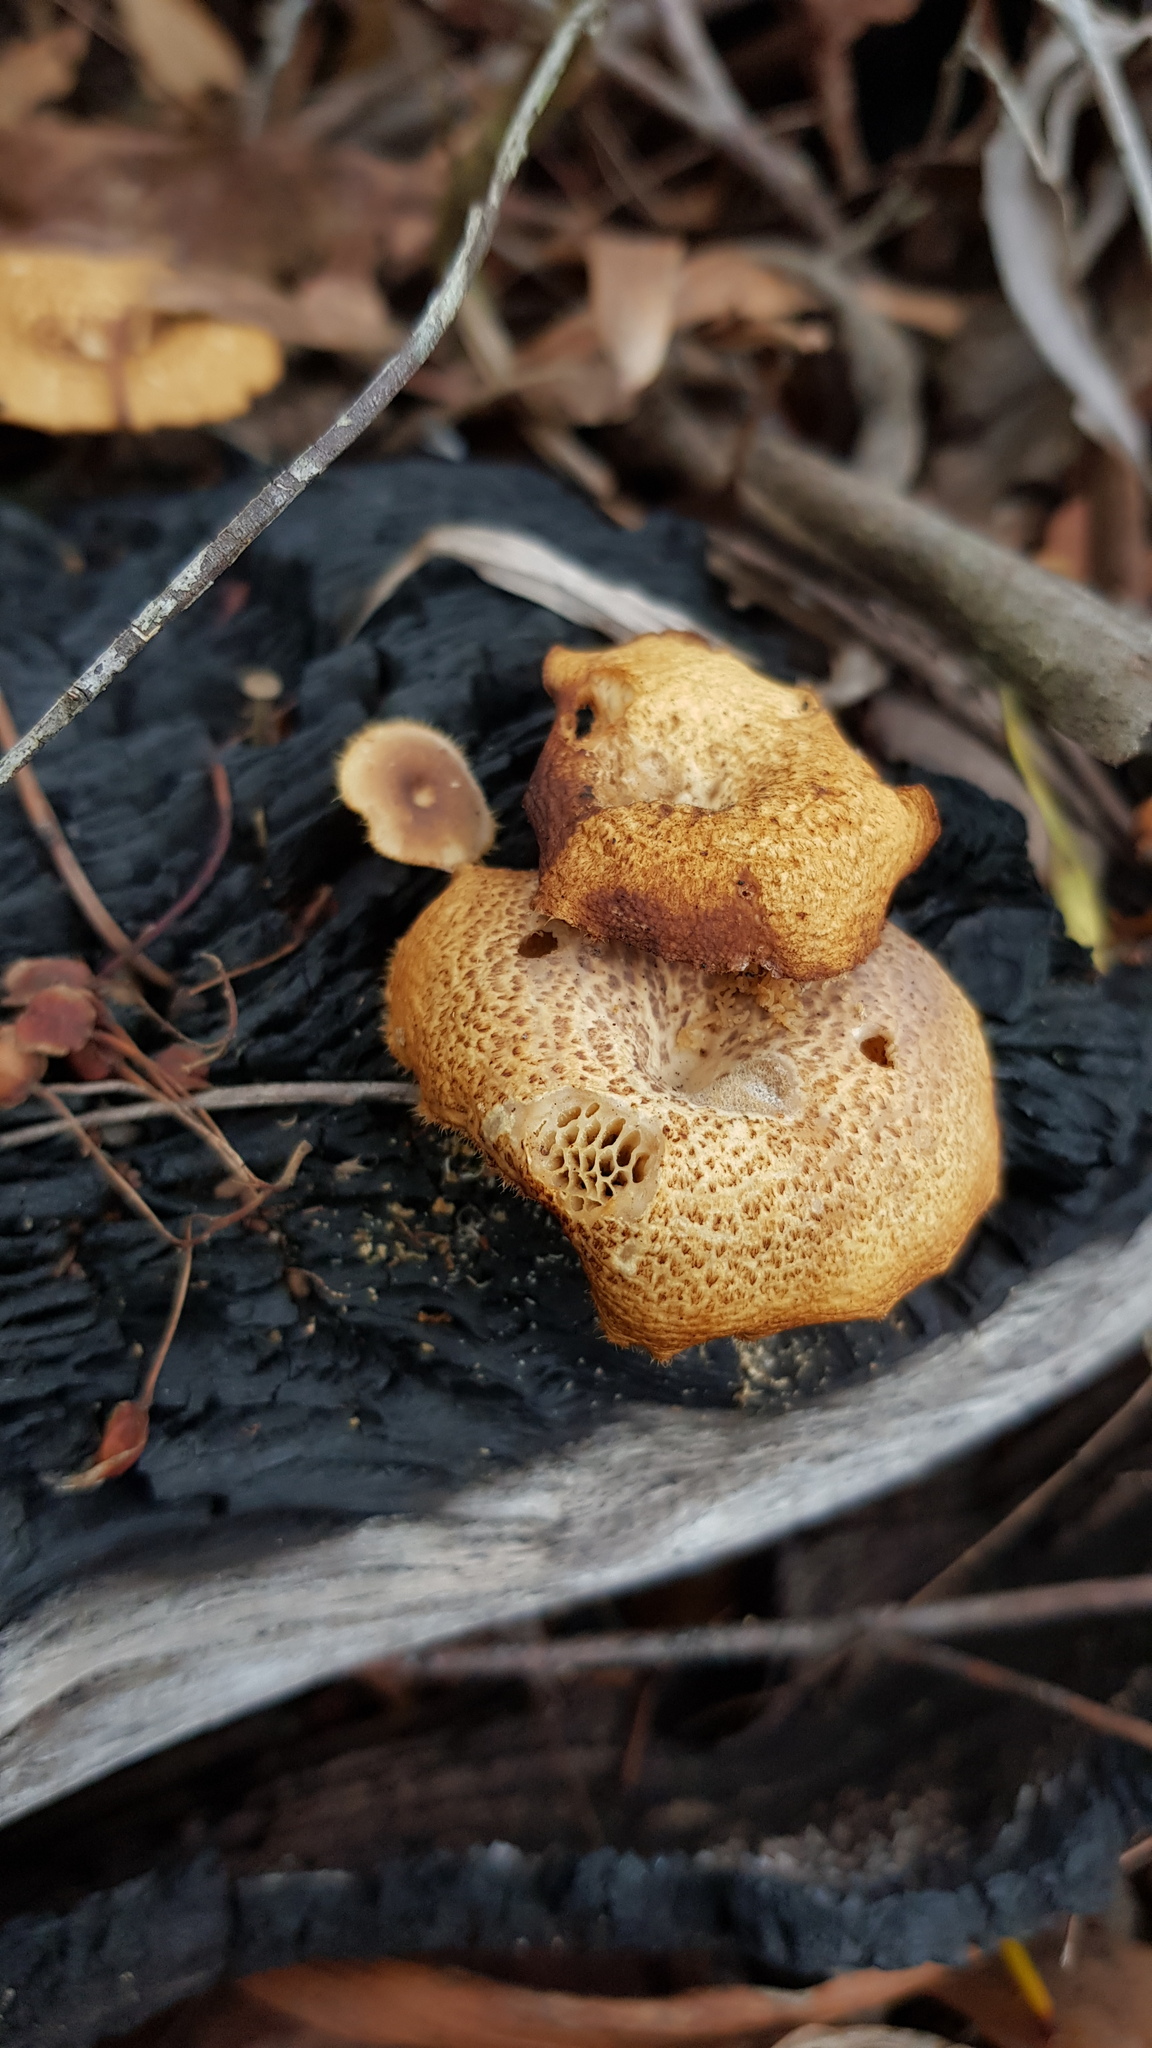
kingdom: Fungi
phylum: Basidiomycota
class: Agaricomycetes
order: Polyporales
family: Polyporaceae
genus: Lentinus
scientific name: Lentinus arcularius
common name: Spring polypore
